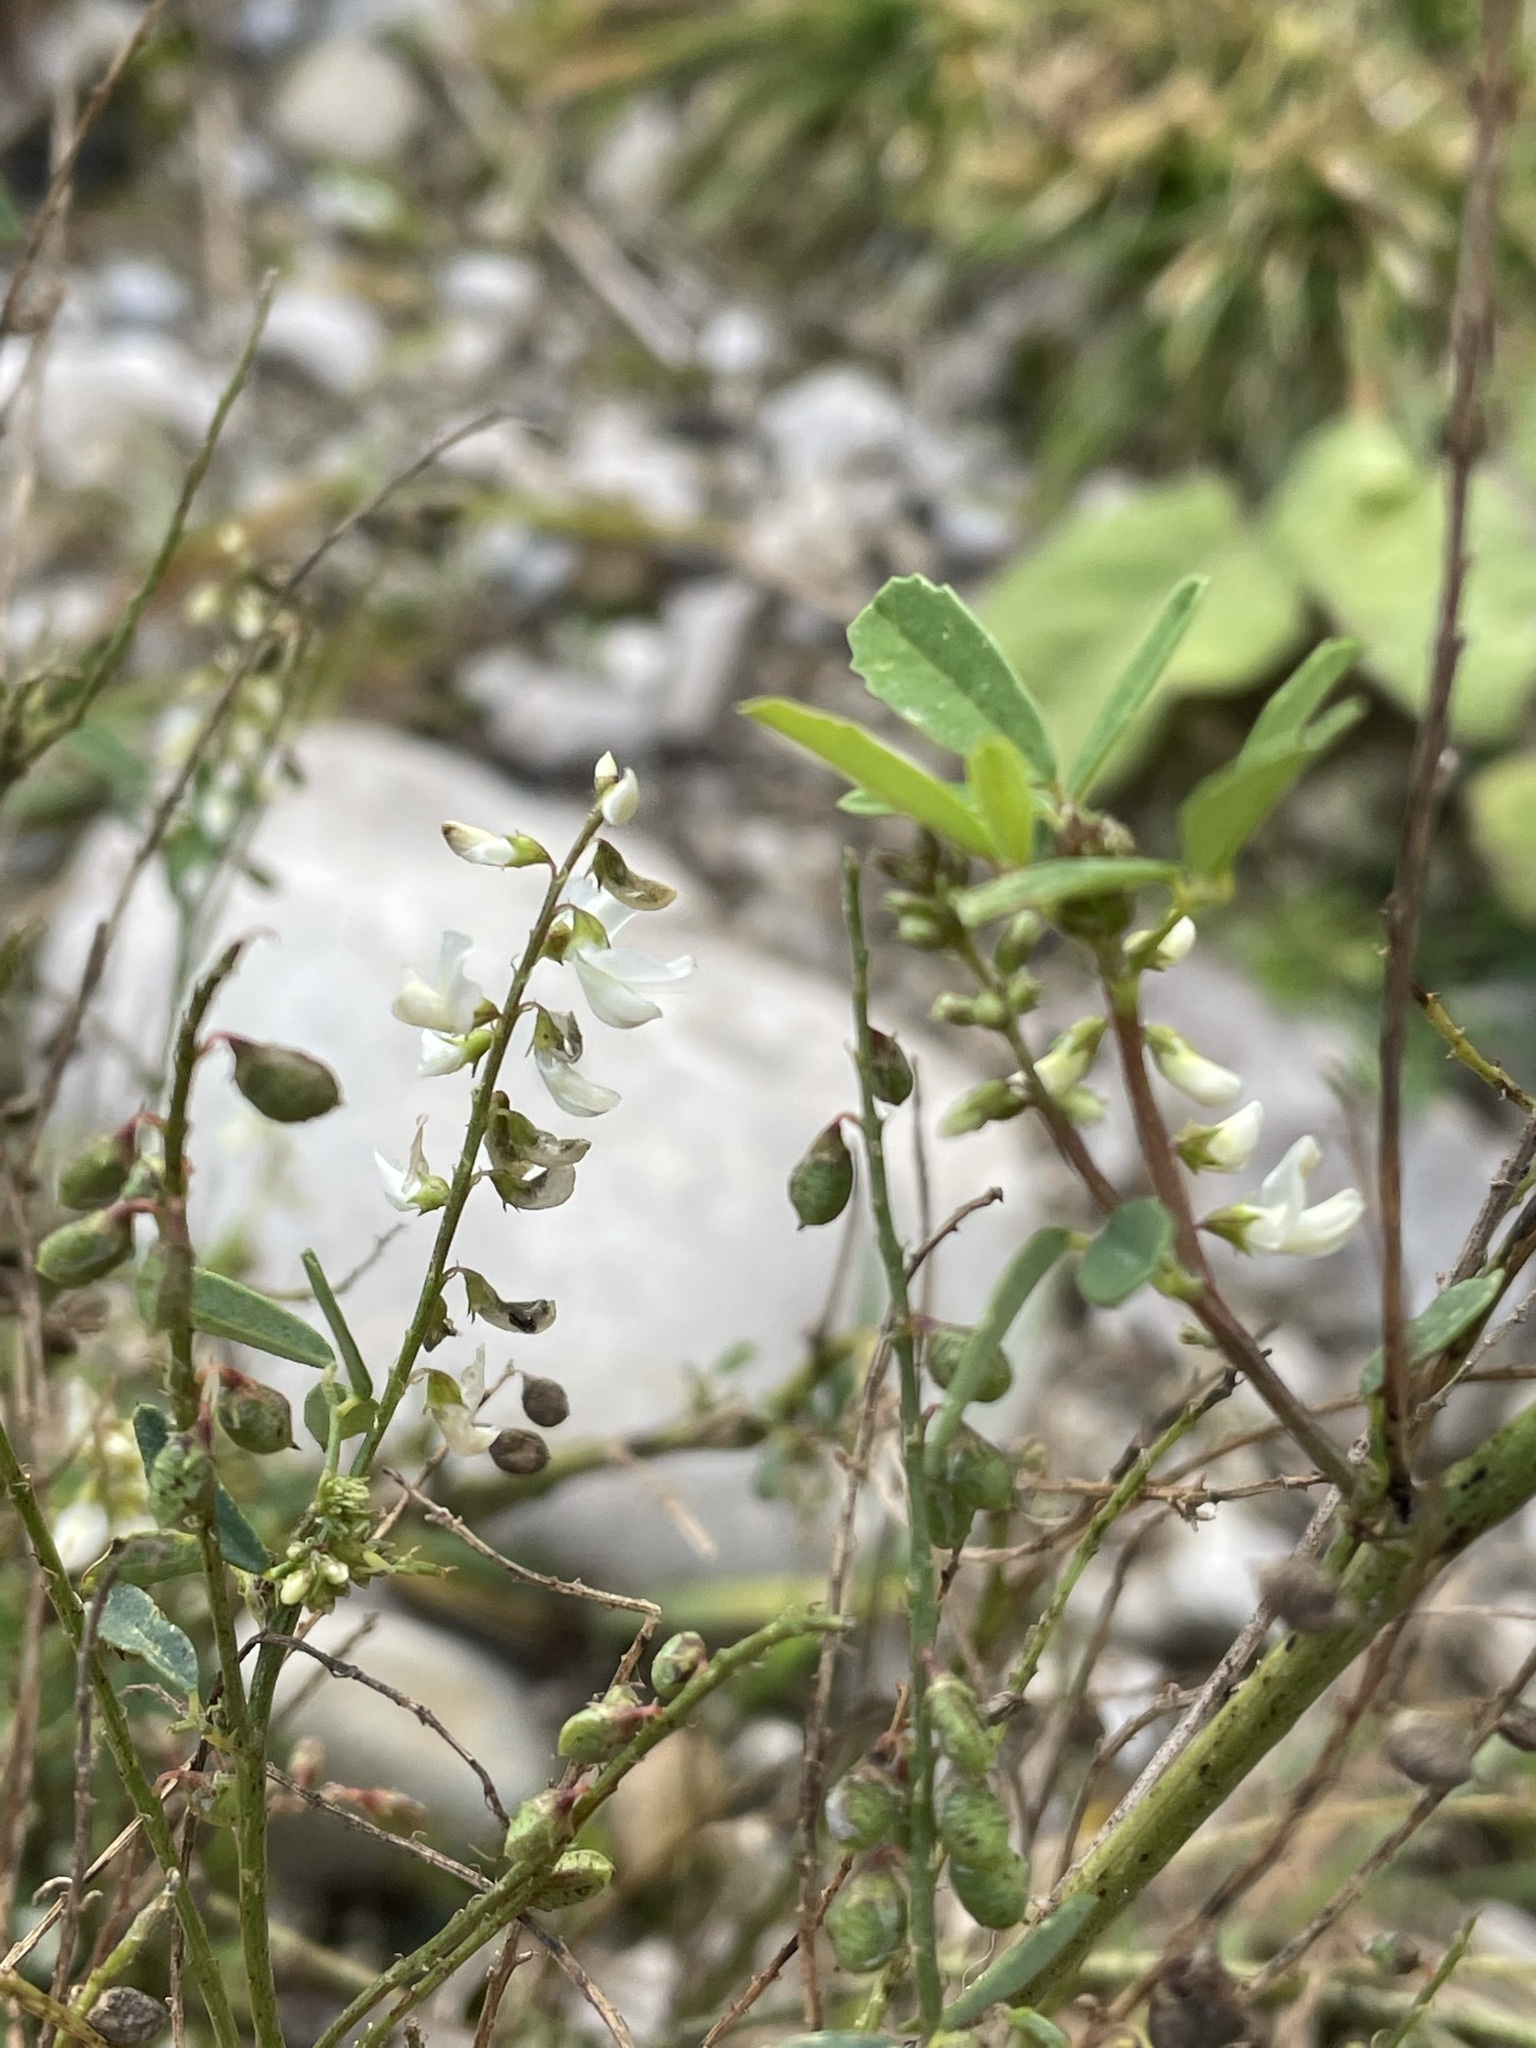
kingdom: Plantae
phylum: Tracheophyta
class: Magnoliopsida
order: Fabales
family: Fabaceae
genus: Melilotus
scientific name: Melilotus albus
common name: White melilot
